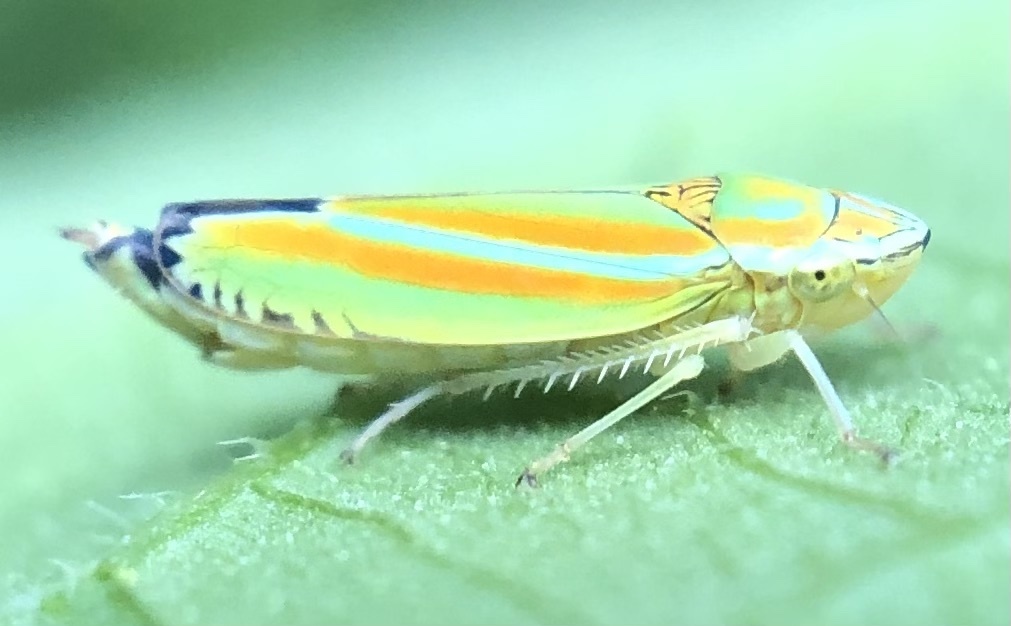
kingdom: Animalia
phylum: Arthropoda
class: Insecta
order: Hemiptera
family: Cicadellidae
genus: Graphocephala
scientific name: Graphocephala versuta
